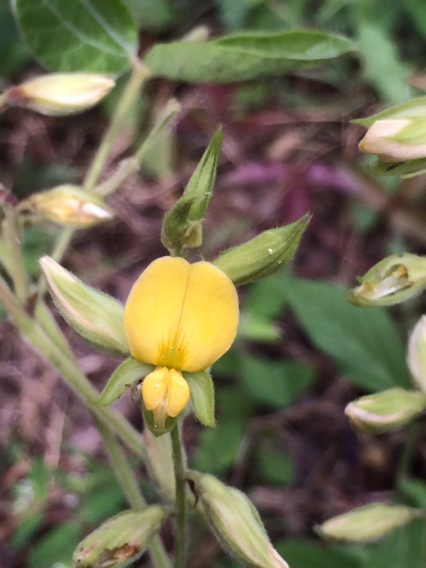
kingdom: Plantae
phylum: Tracheophyta
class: Magnoliopsida
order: Fabales
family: Fabaceae
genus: Rhynchosia
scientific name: Rhynchosia latifolia
